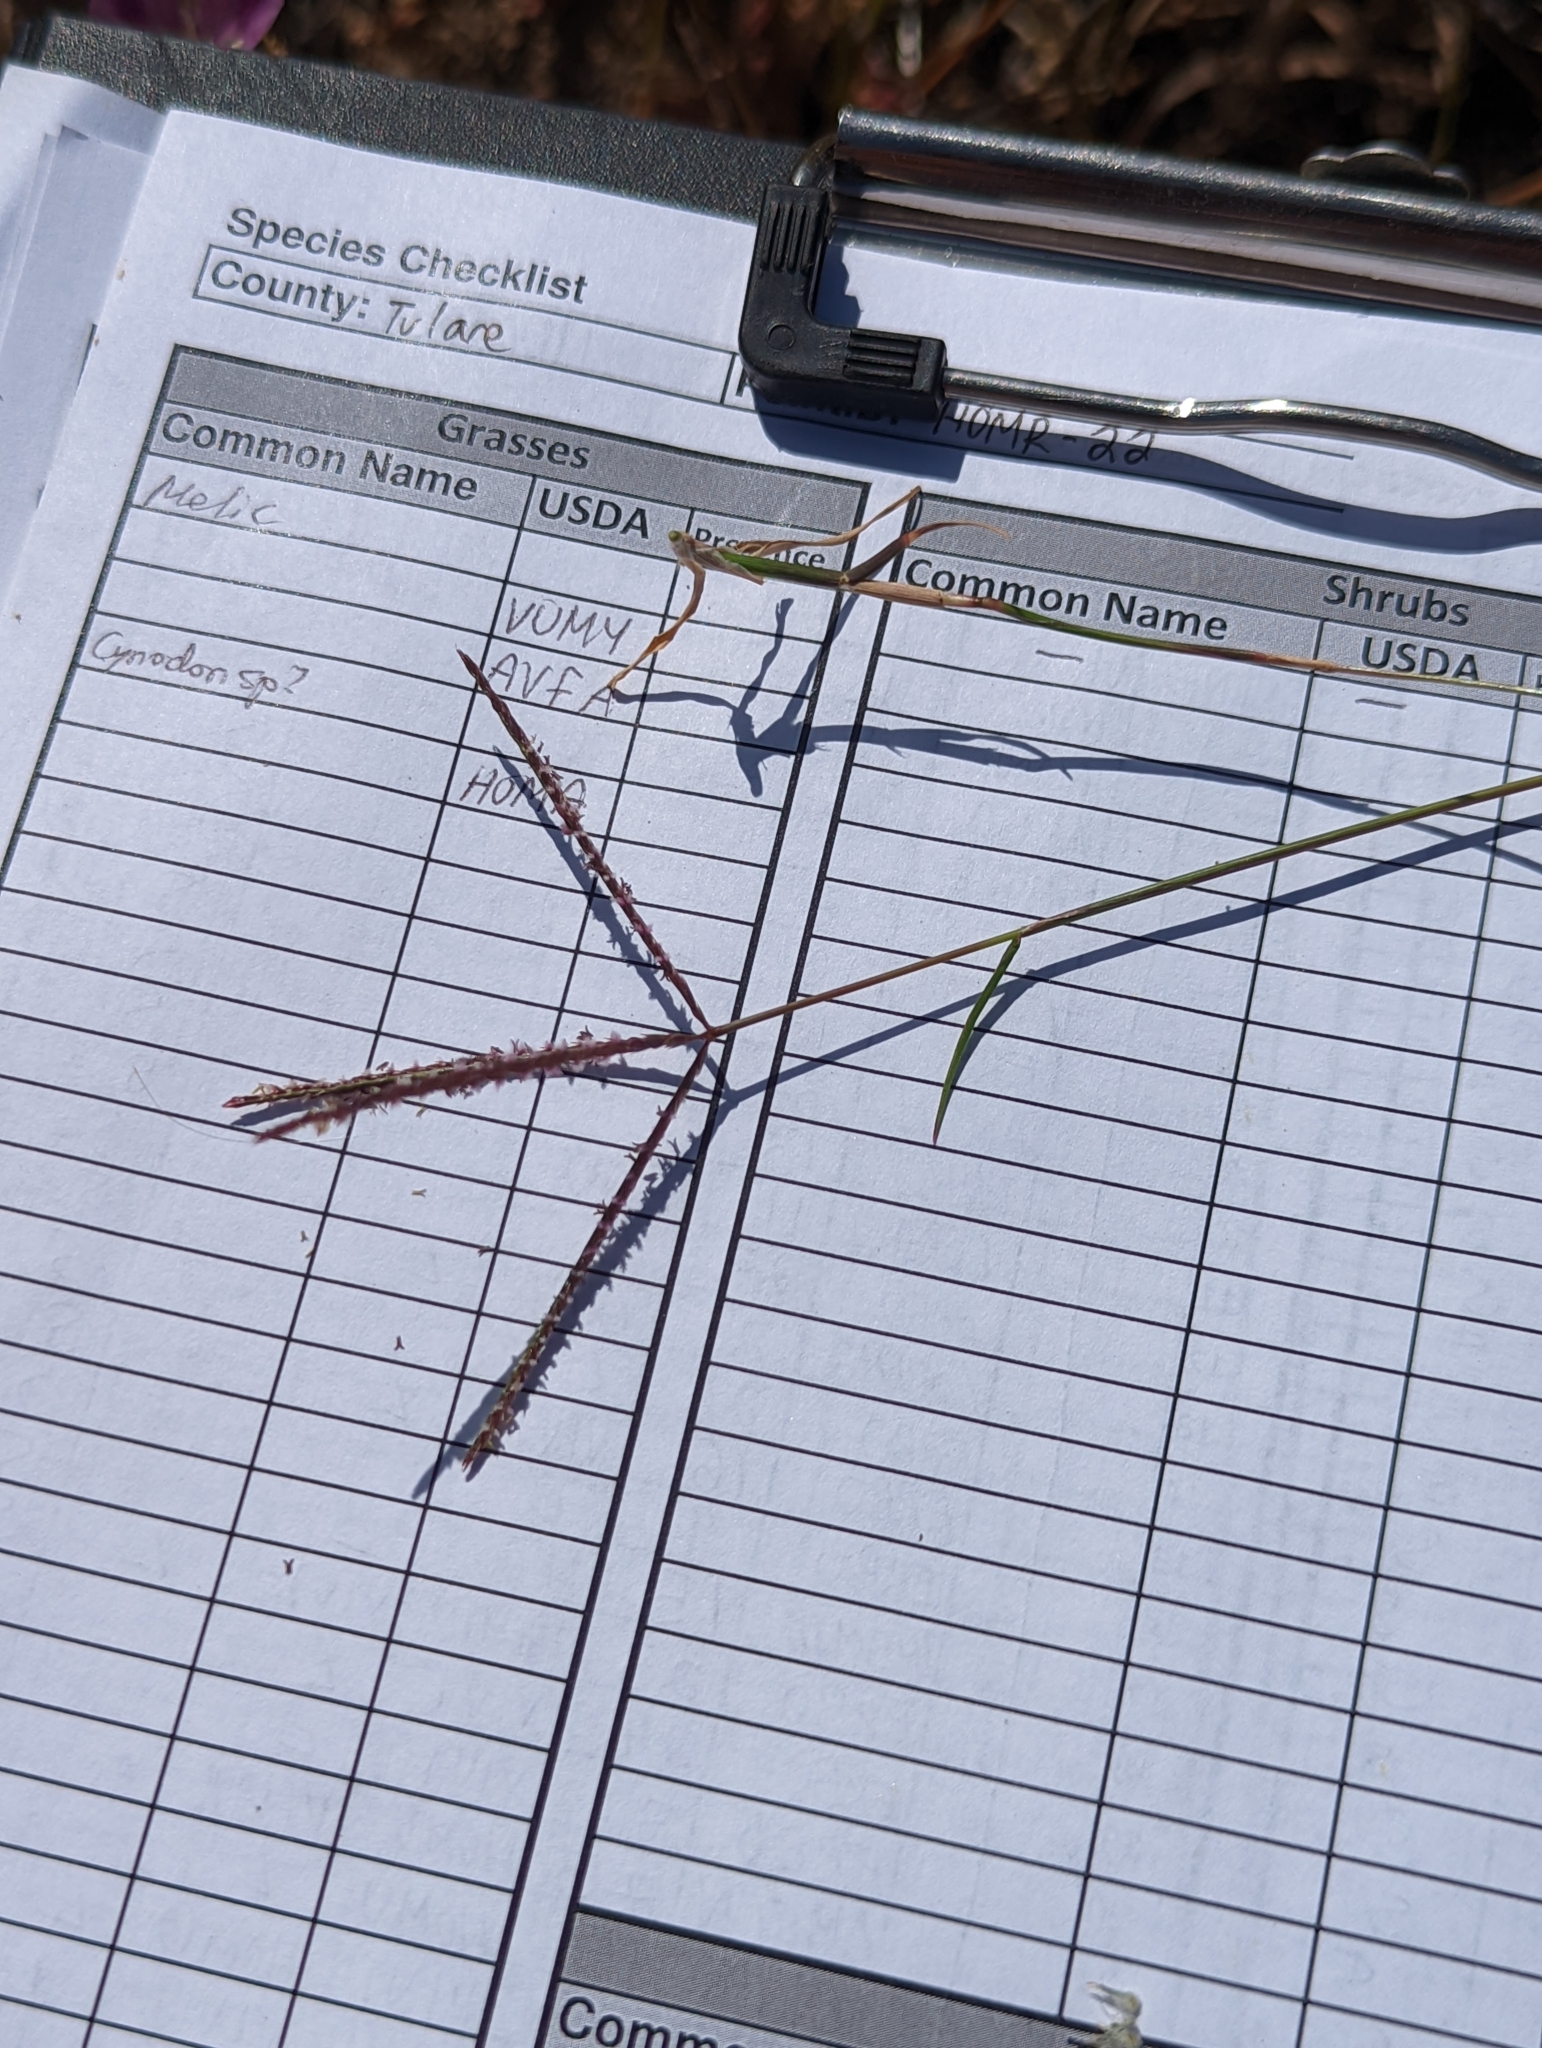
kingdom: Plantae
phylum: Tracheophyta
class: Liliopsida
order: Poales
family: Poaceae
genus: Cynodon
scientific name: Cynodon dactylon
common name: Bermuda grass
